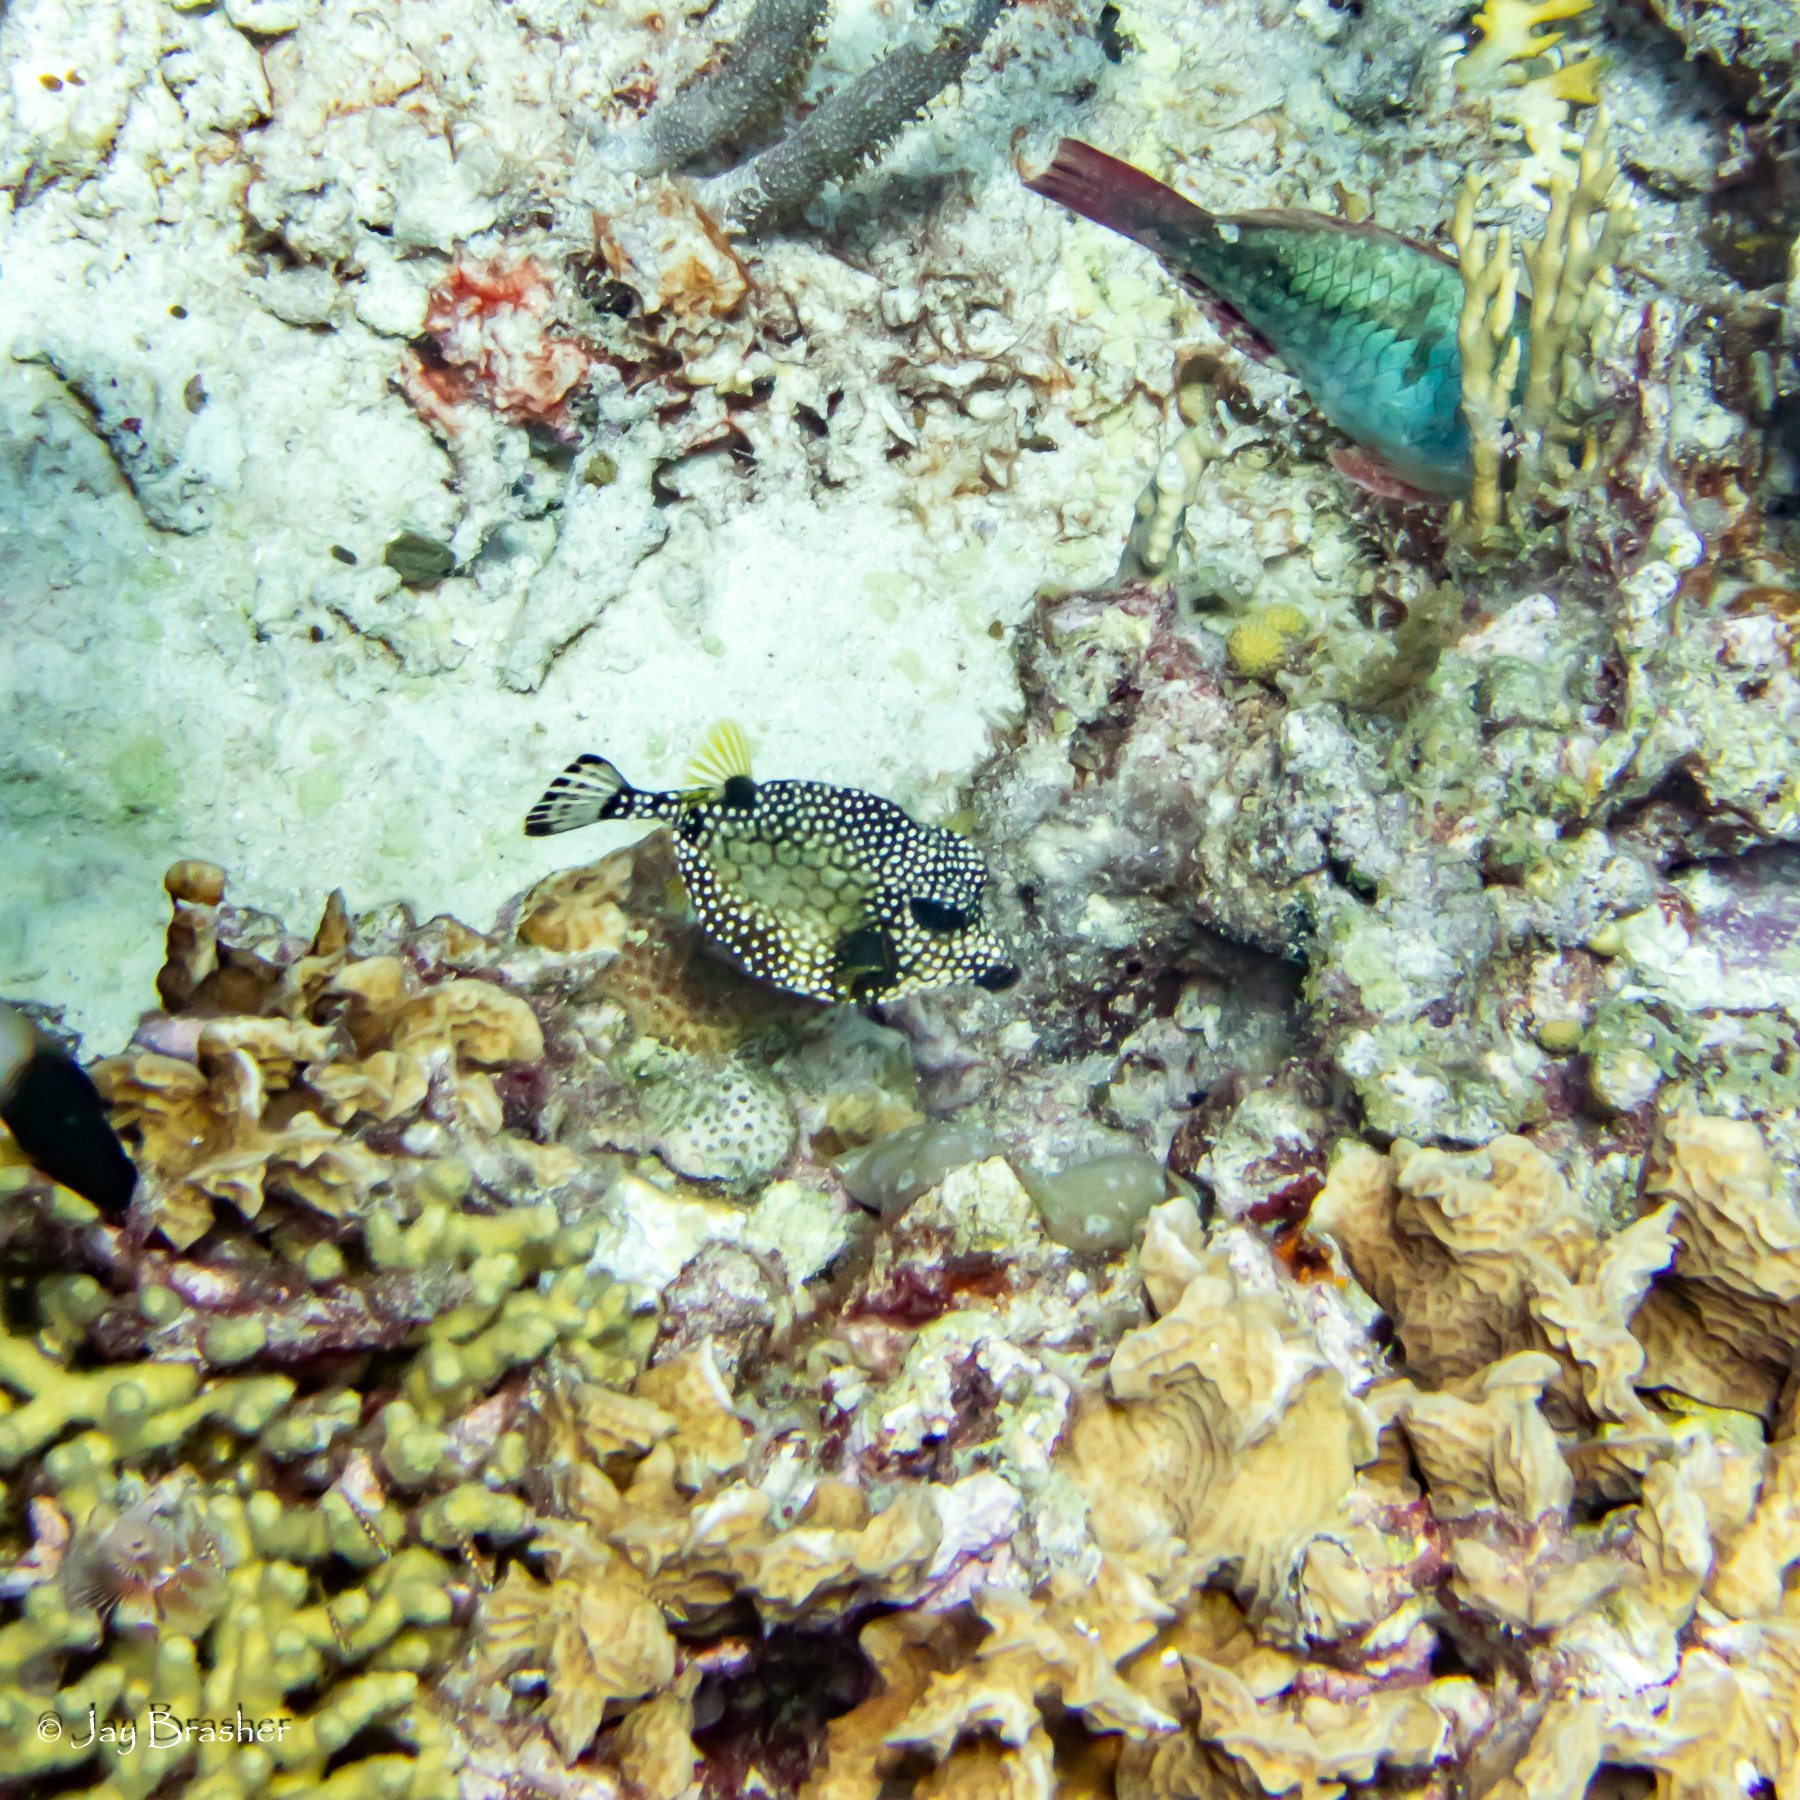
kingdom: Animalia
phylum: Chordata
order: Tetraodontiformes
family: Ostraciidae
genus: Lactophrys
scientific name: Lactophrys triqueter
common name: Smooth trunkfish
